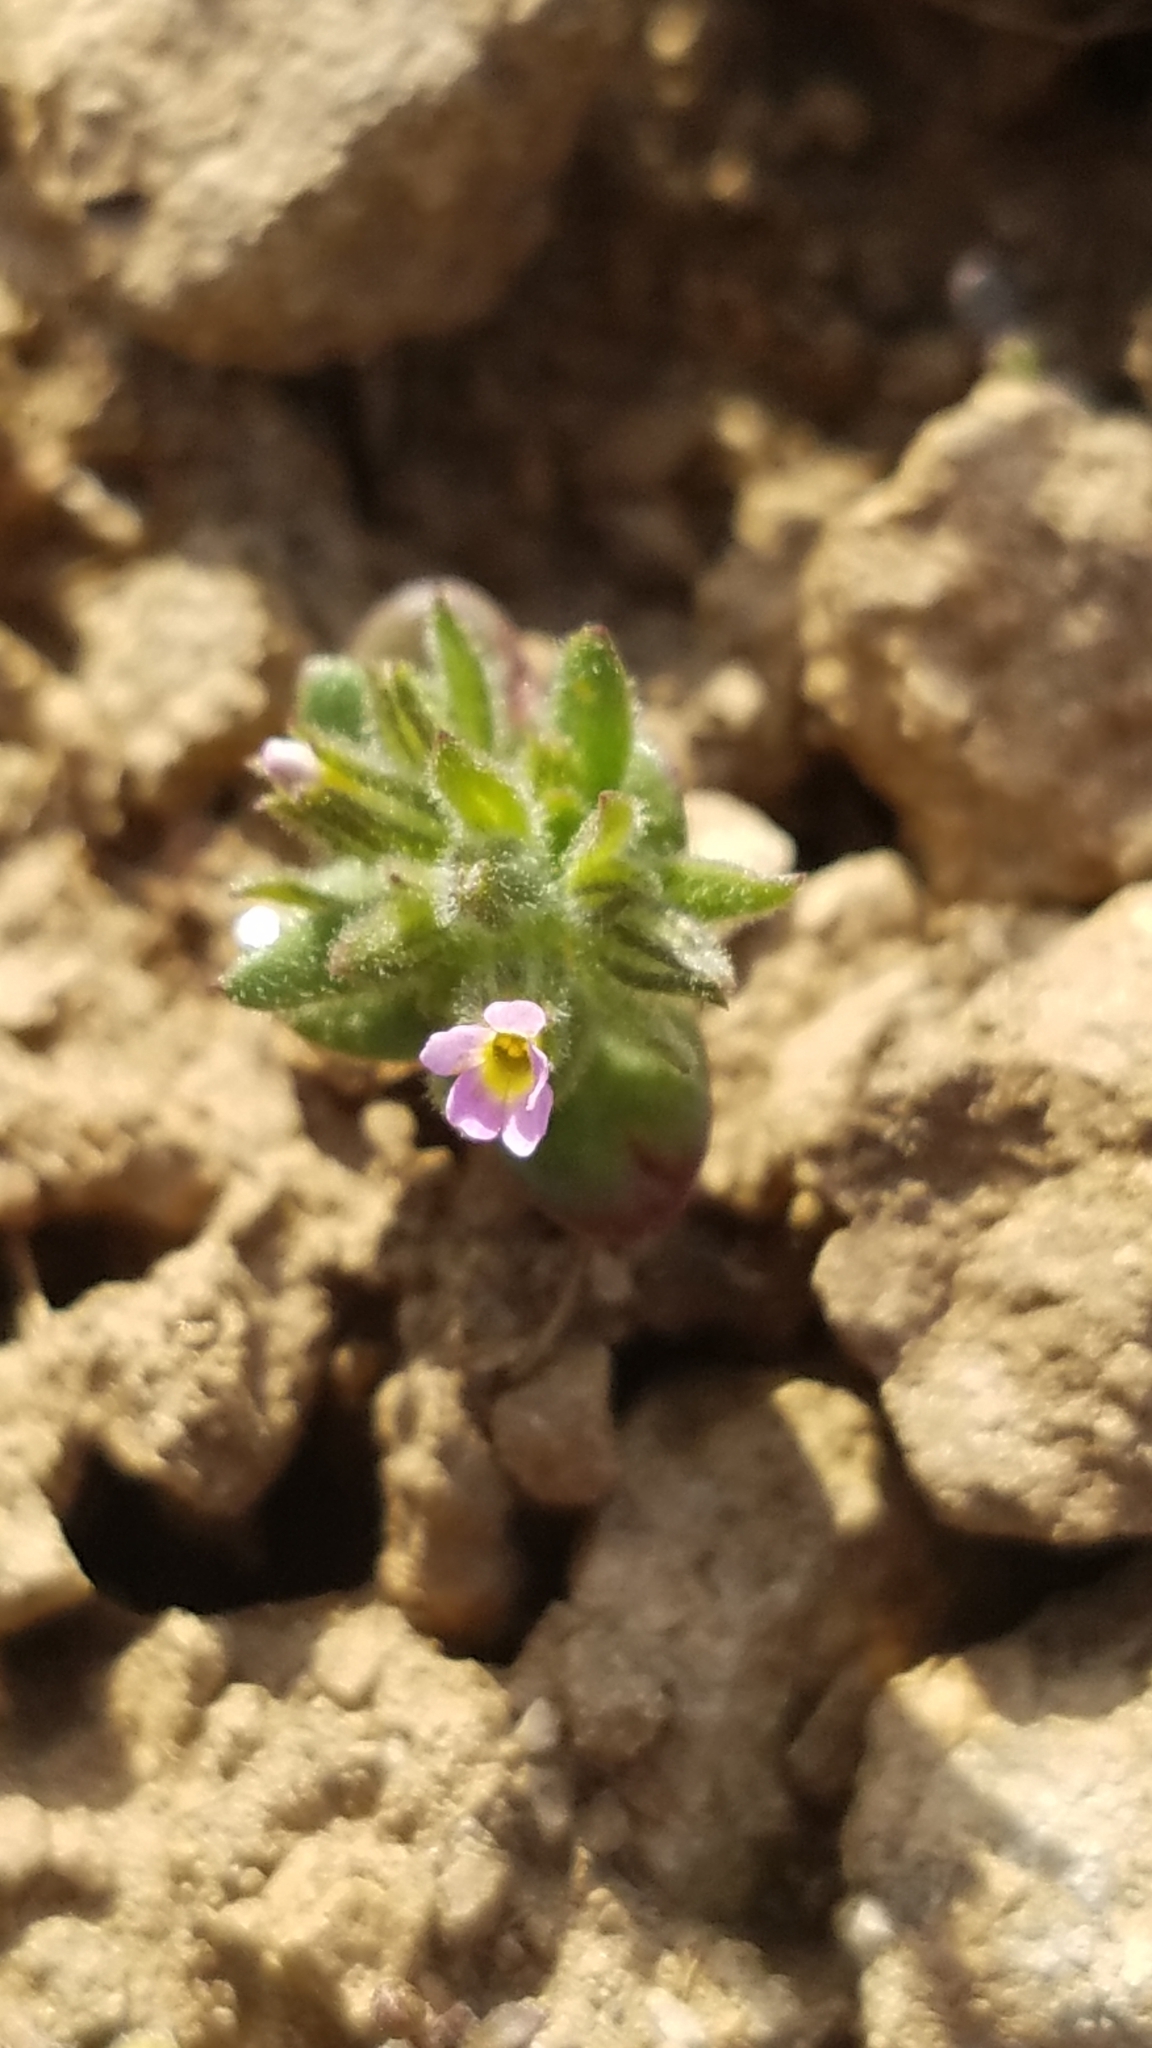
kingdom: Plantae
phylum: Tracheophyta
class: Magnoliopsida
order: Ericales
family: Polemoniaceae
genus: Phlox
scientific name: Phlox gracilis
